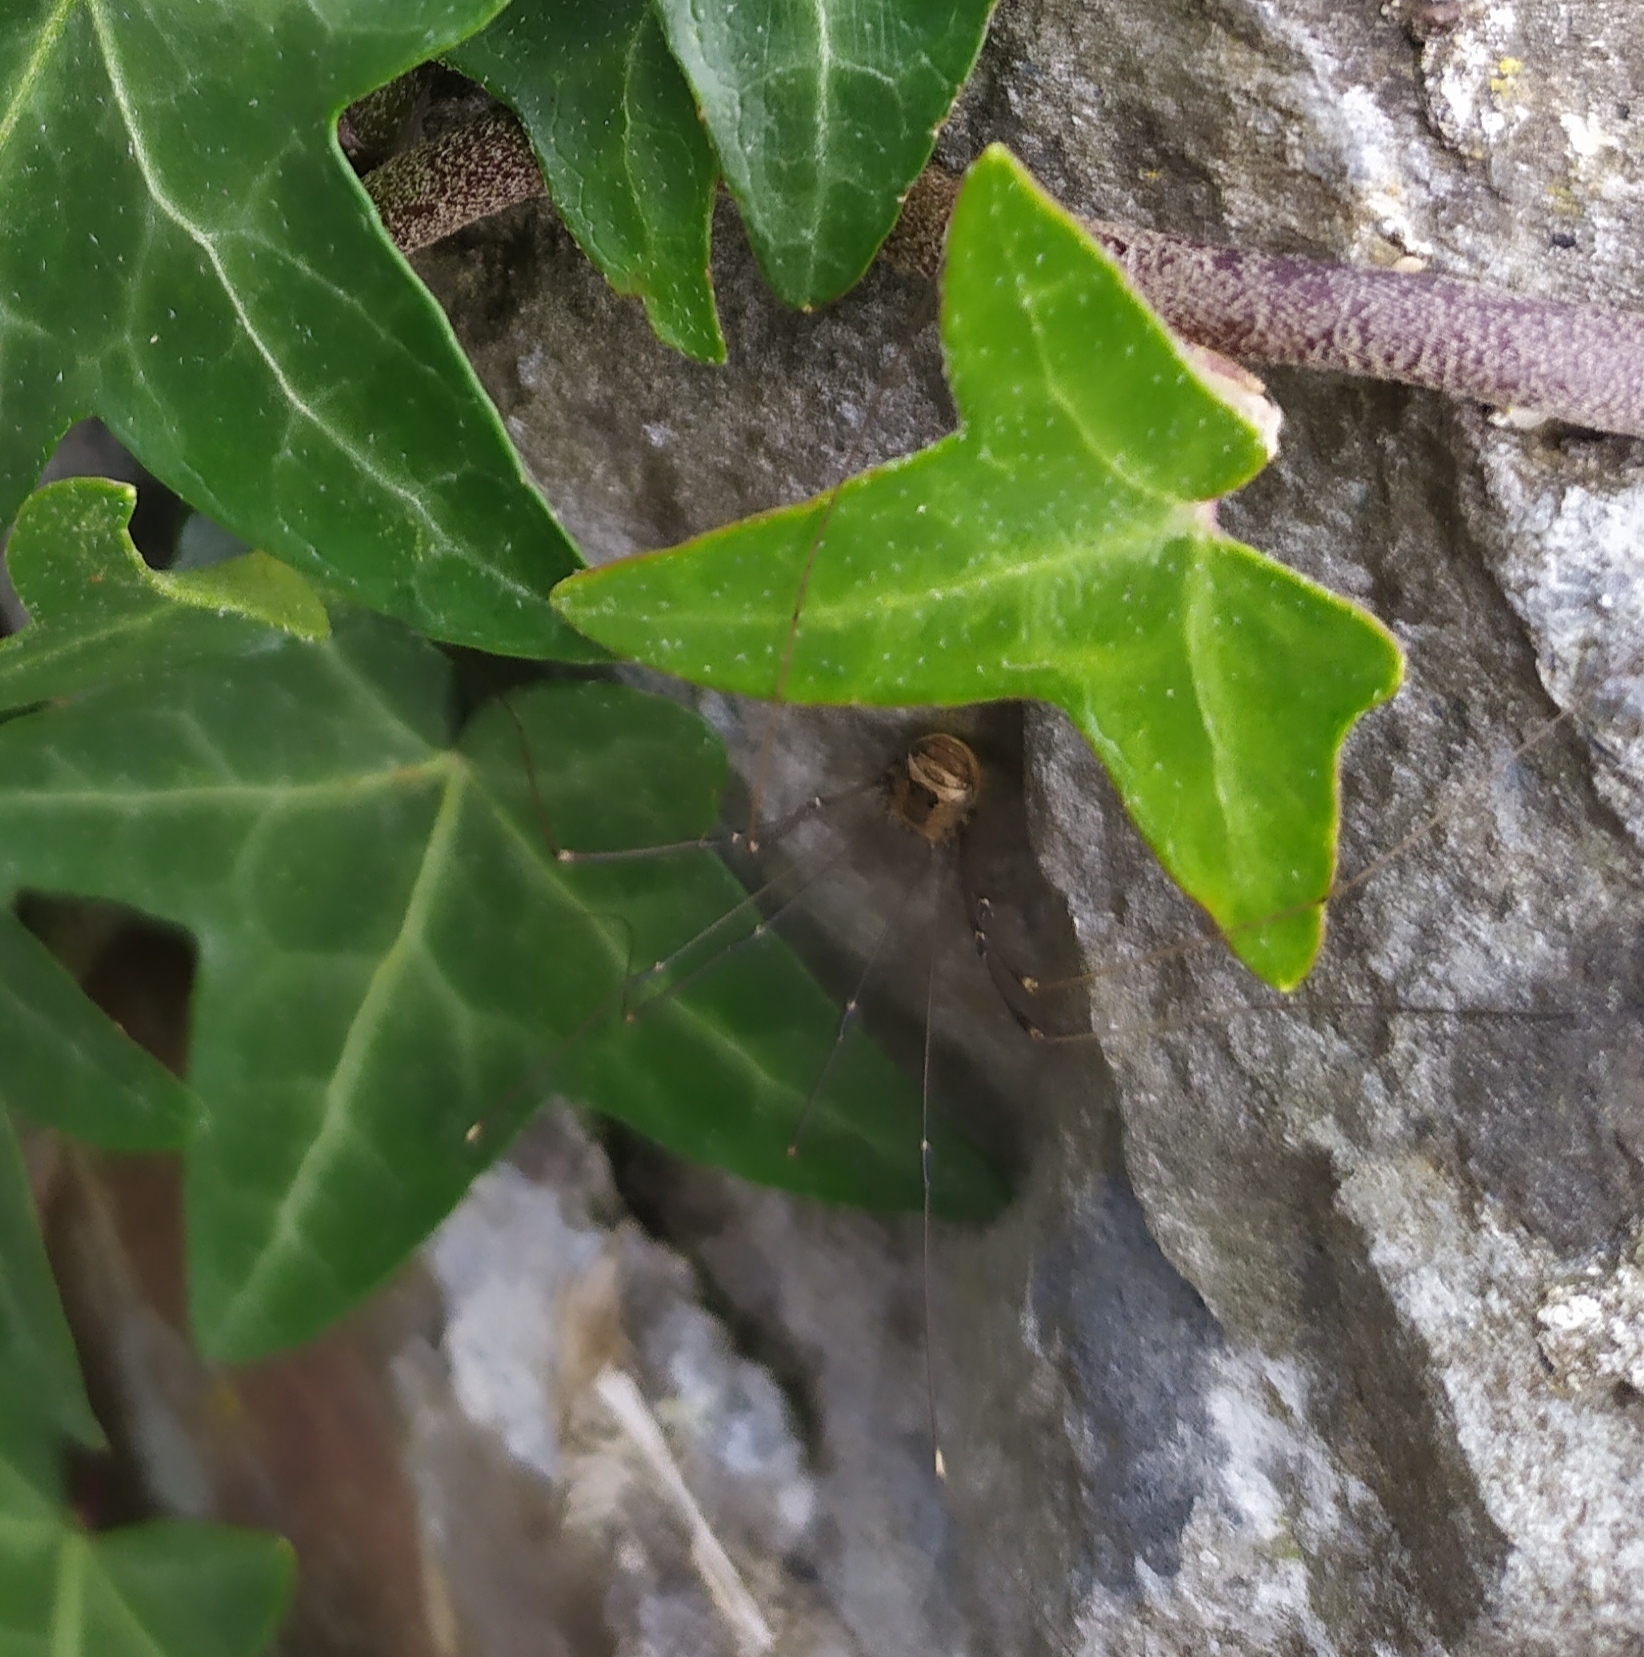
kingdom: Animalia
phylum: Arthropoda
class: Arachnida
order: Opiliones
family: Sclerosomatidae
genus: Leiobunum
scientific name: Leiobunum rotundum
